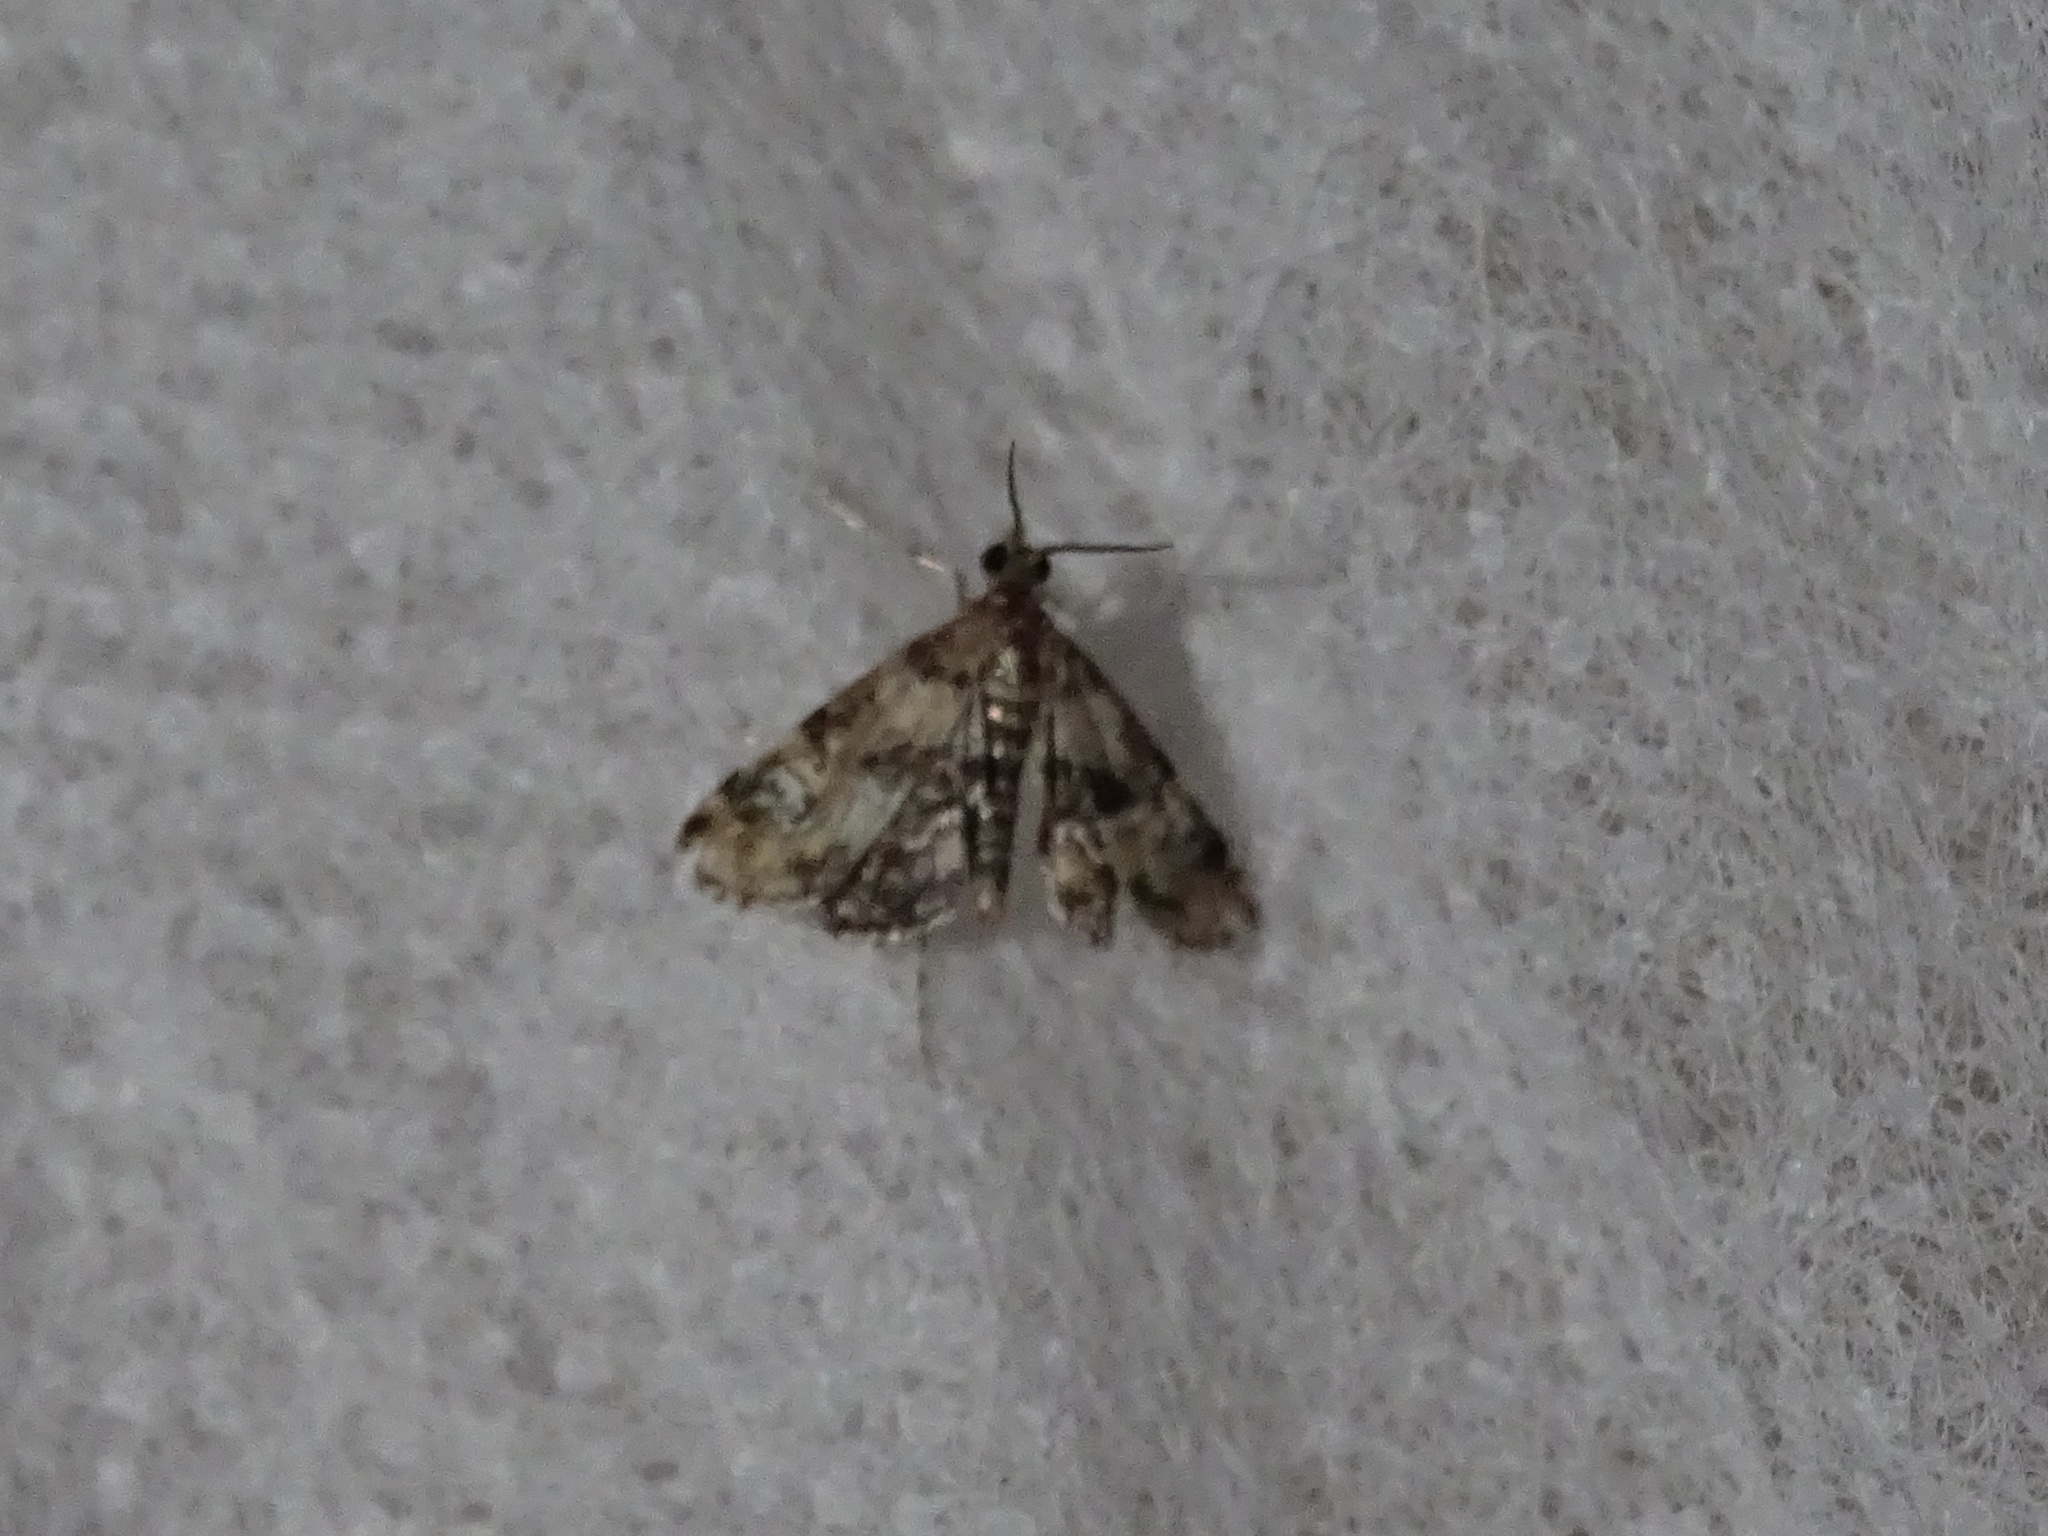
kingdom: Animalia
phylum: Arthropoda
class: Insecta
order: Lepidoptera
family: Crambidae
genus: Elophila
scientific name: Elophila obliteralis
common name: Waterlily leafcutter moth
